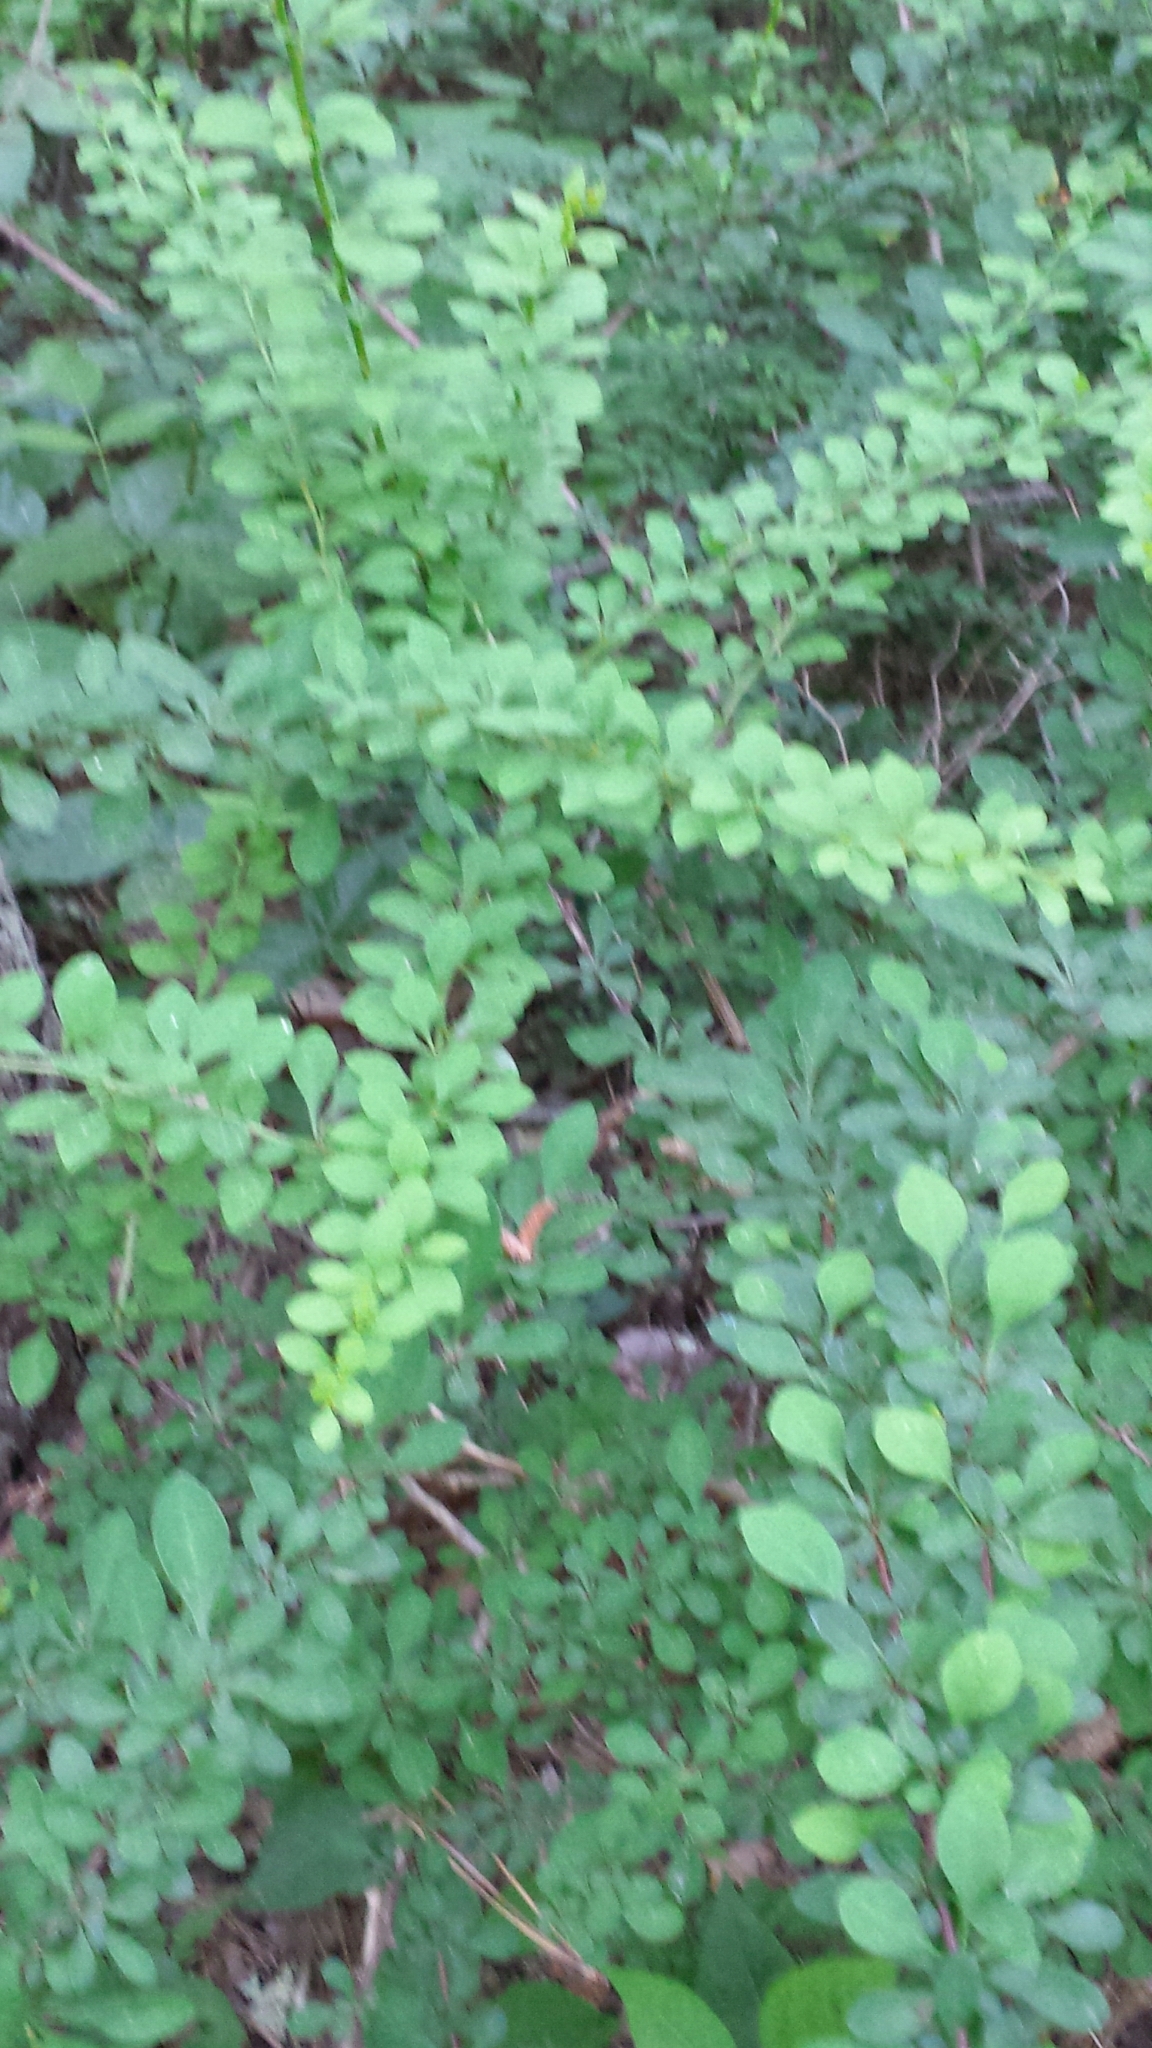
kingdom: Plantae
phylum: Tracheophyta
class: Magnoliopsida
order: Ranunculales
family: Berberidaceae
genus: Berberis
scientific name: Berberis thunbergii
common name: Japanese barberry
